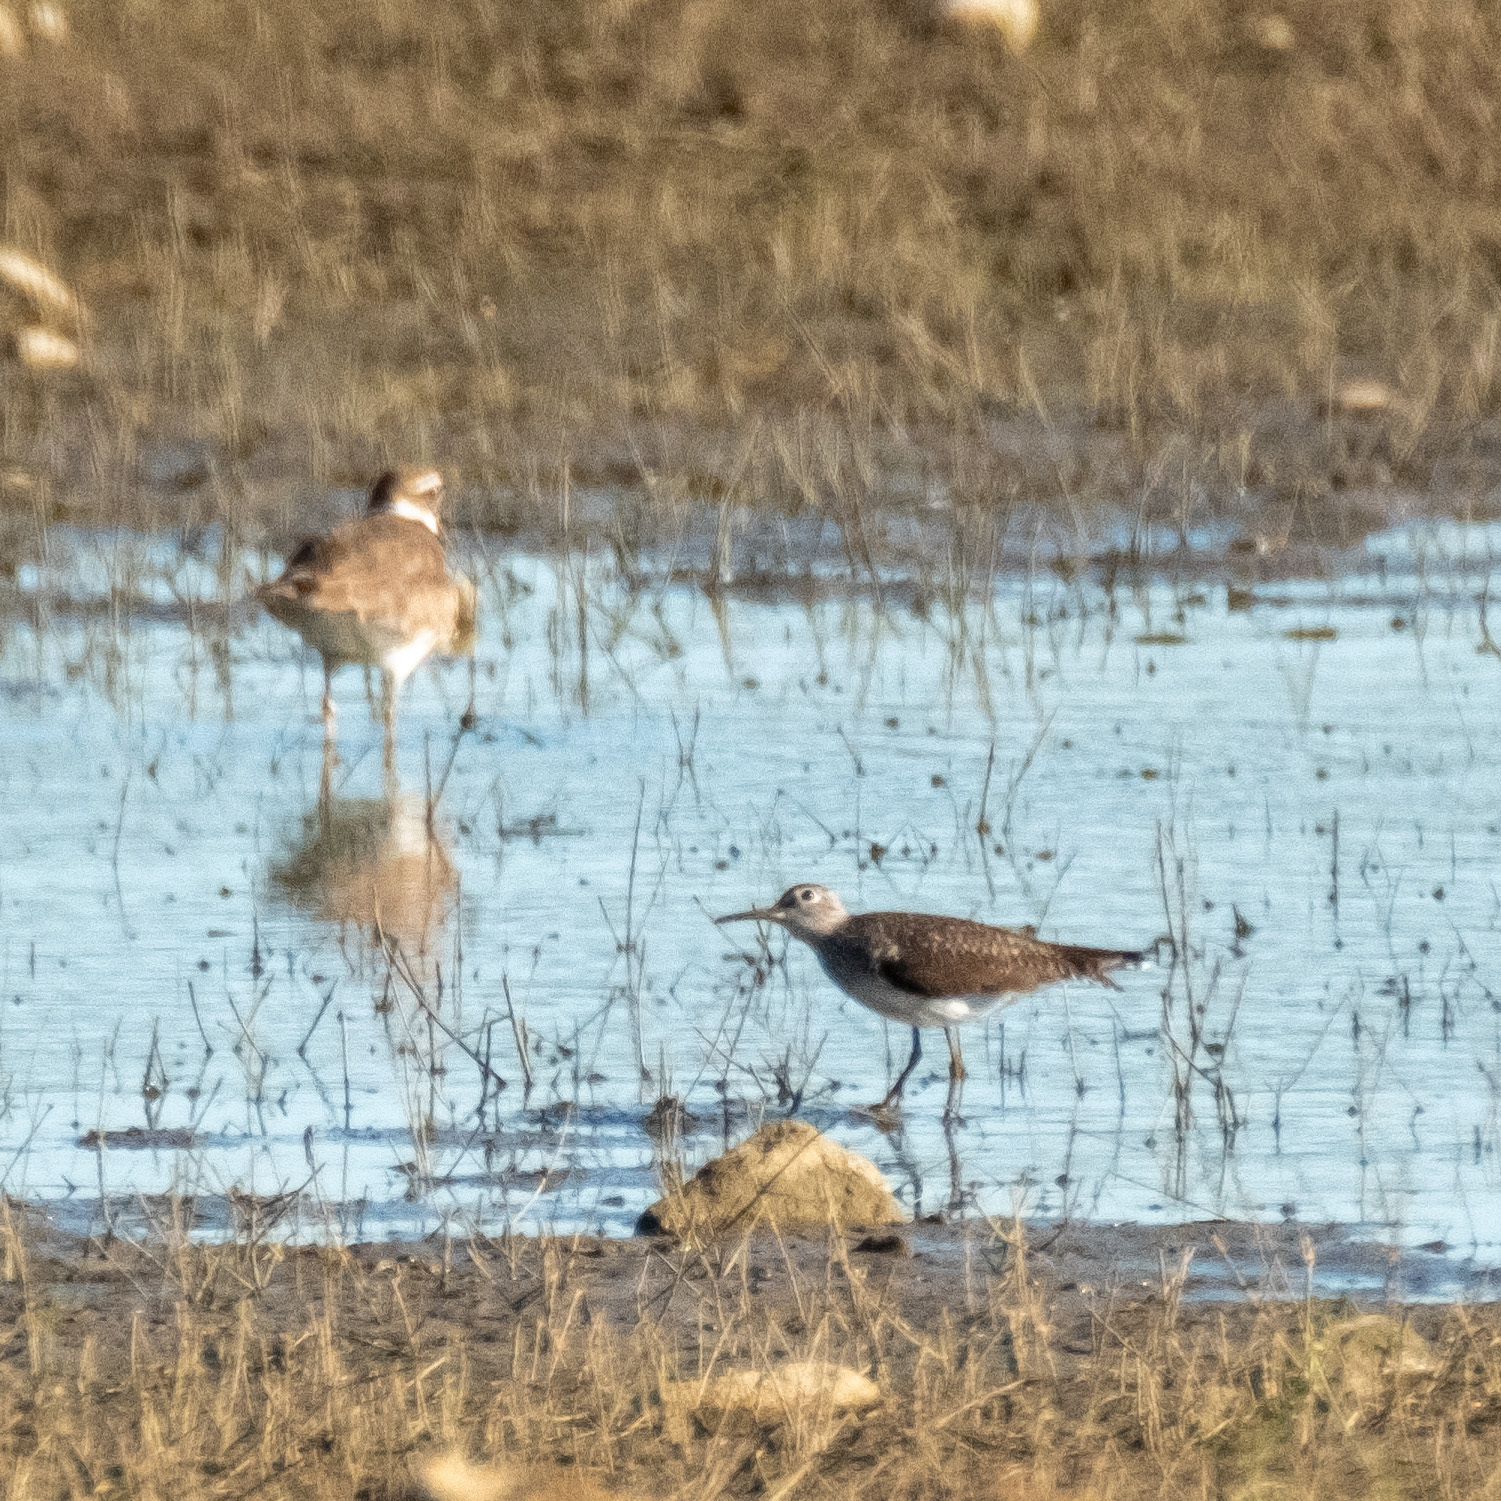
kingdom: Animalia
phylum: Chordata
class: Aves
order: Charadriiformes
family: Scolopacidae
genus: Tringa
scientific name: Tringa solitaria
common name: Solitary sandpiper
